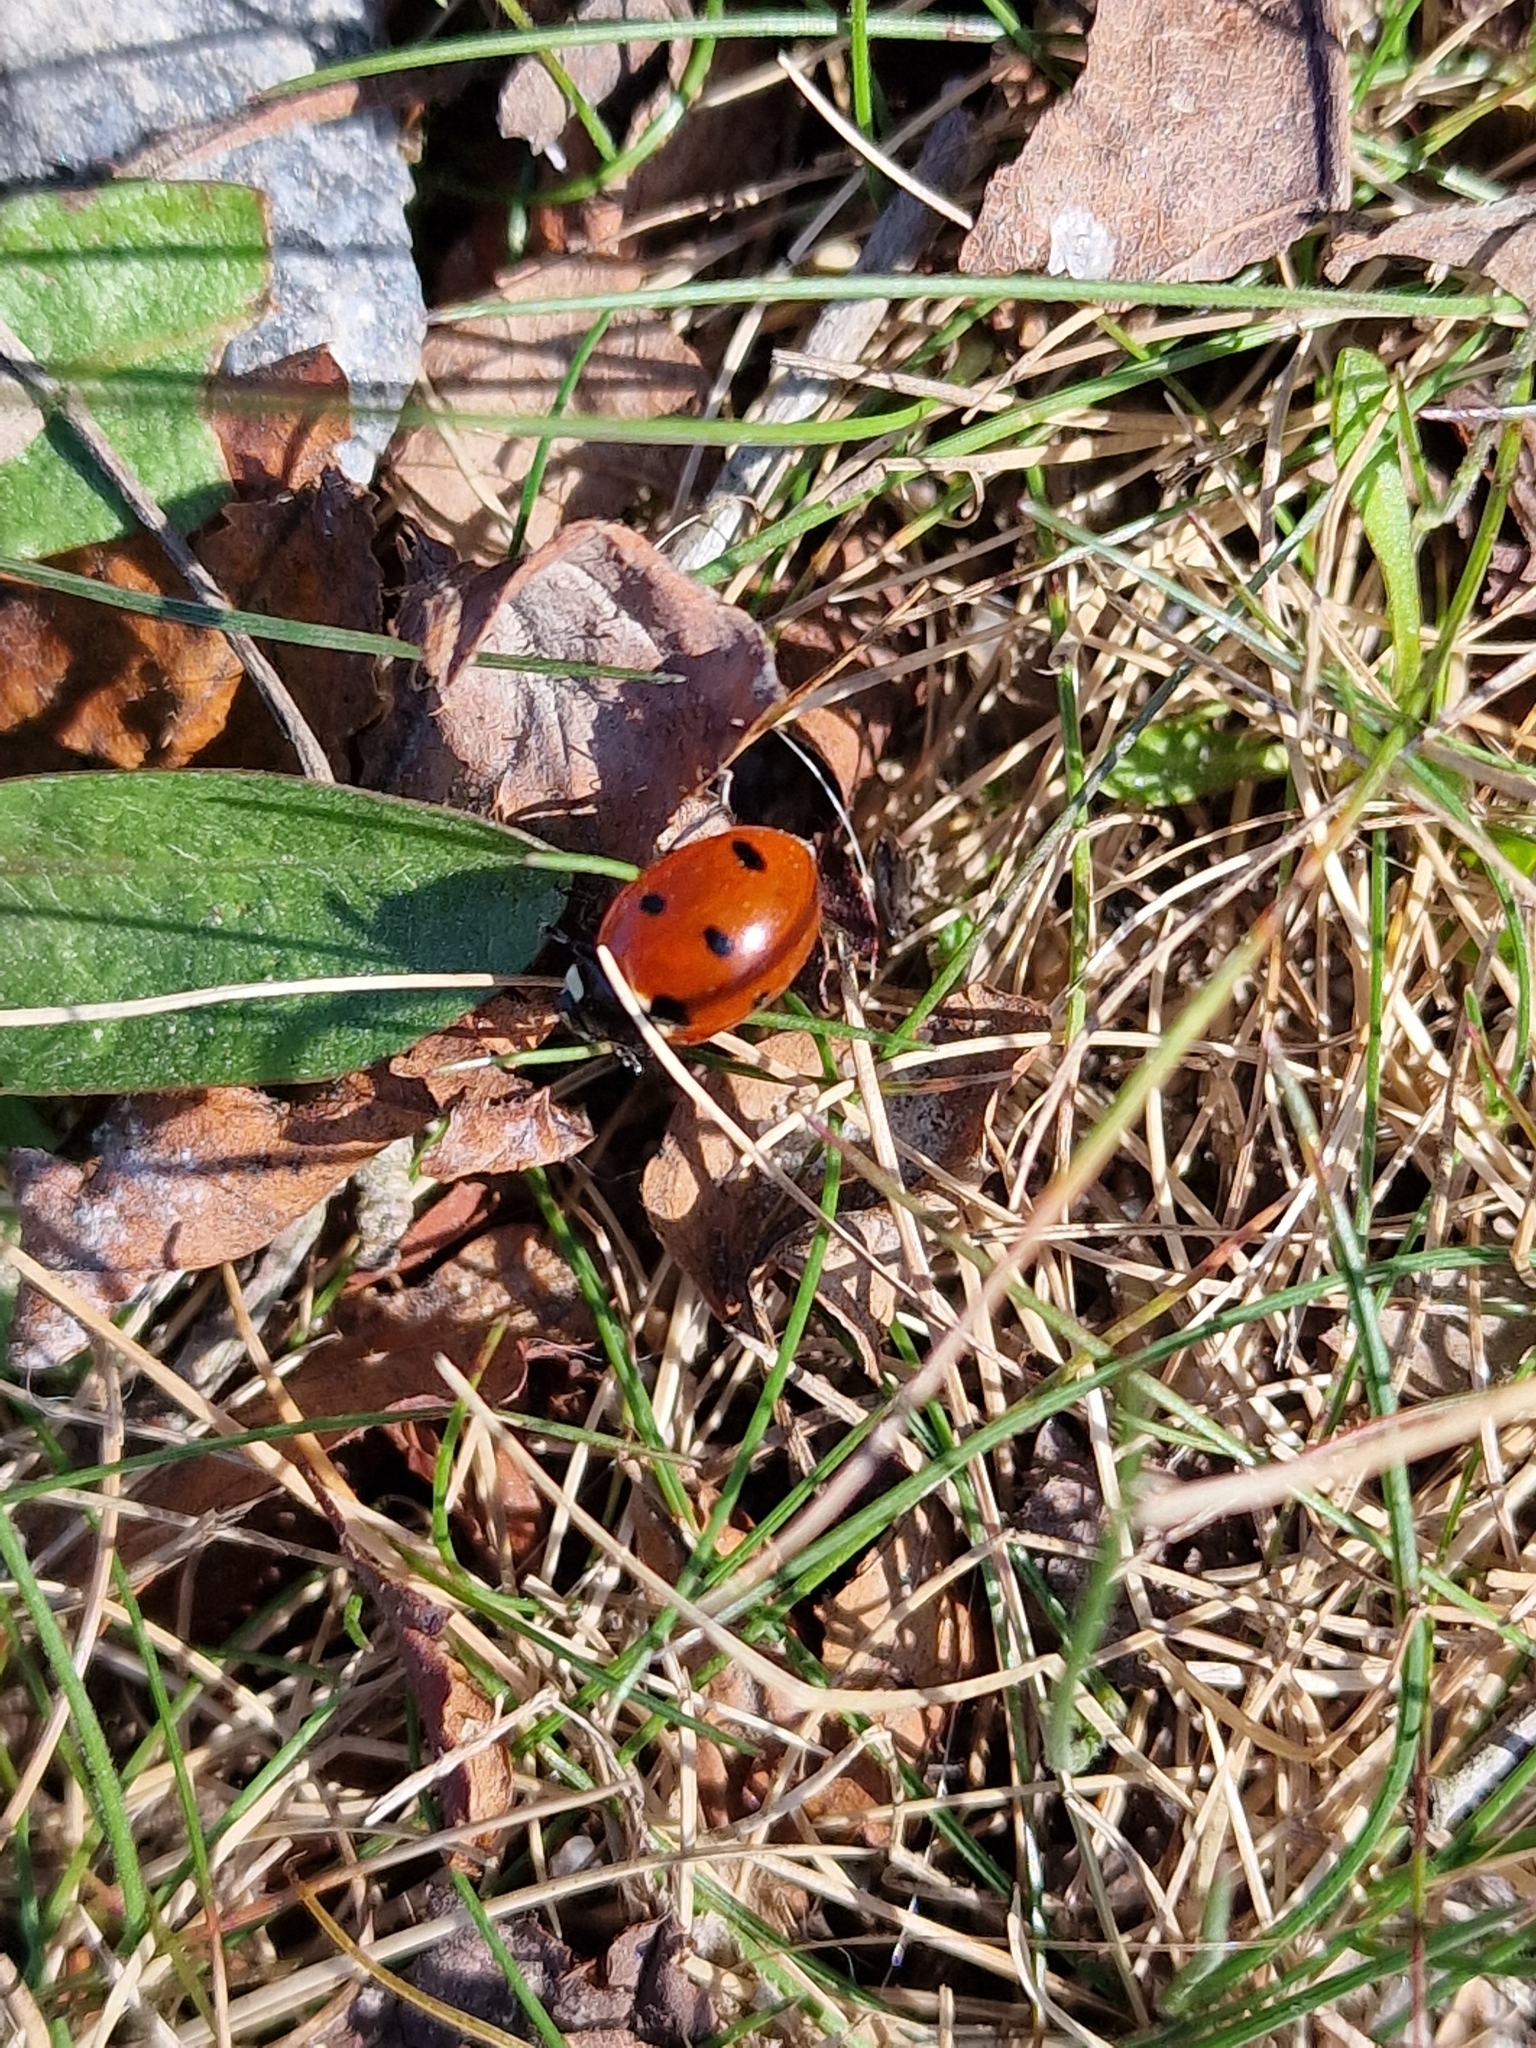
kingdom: Animalia
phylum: Arthropoda
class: Insecta
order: Coleoptera
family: Coccinellidae
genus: Coccinella
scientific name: Coccinella septempunctata
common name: Sevenspotted lady beetle
